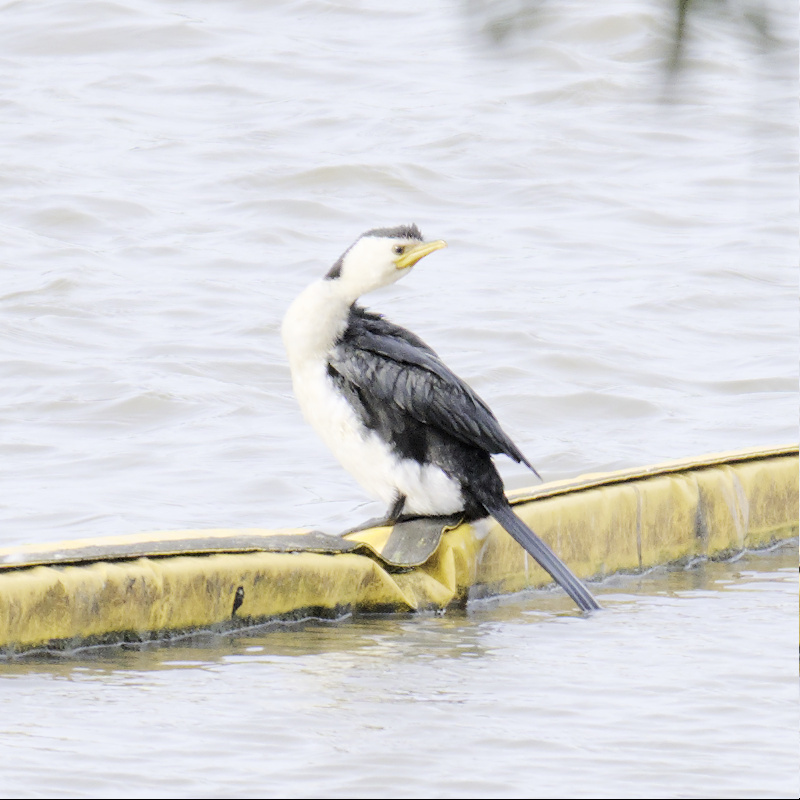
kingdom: Animalia
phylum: Chordata
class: Aves
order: Suliformes
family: Phalacrocoracidae
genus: Microcarbo
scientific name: Microcarbo melanoleucos
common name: Little pied cormorant
